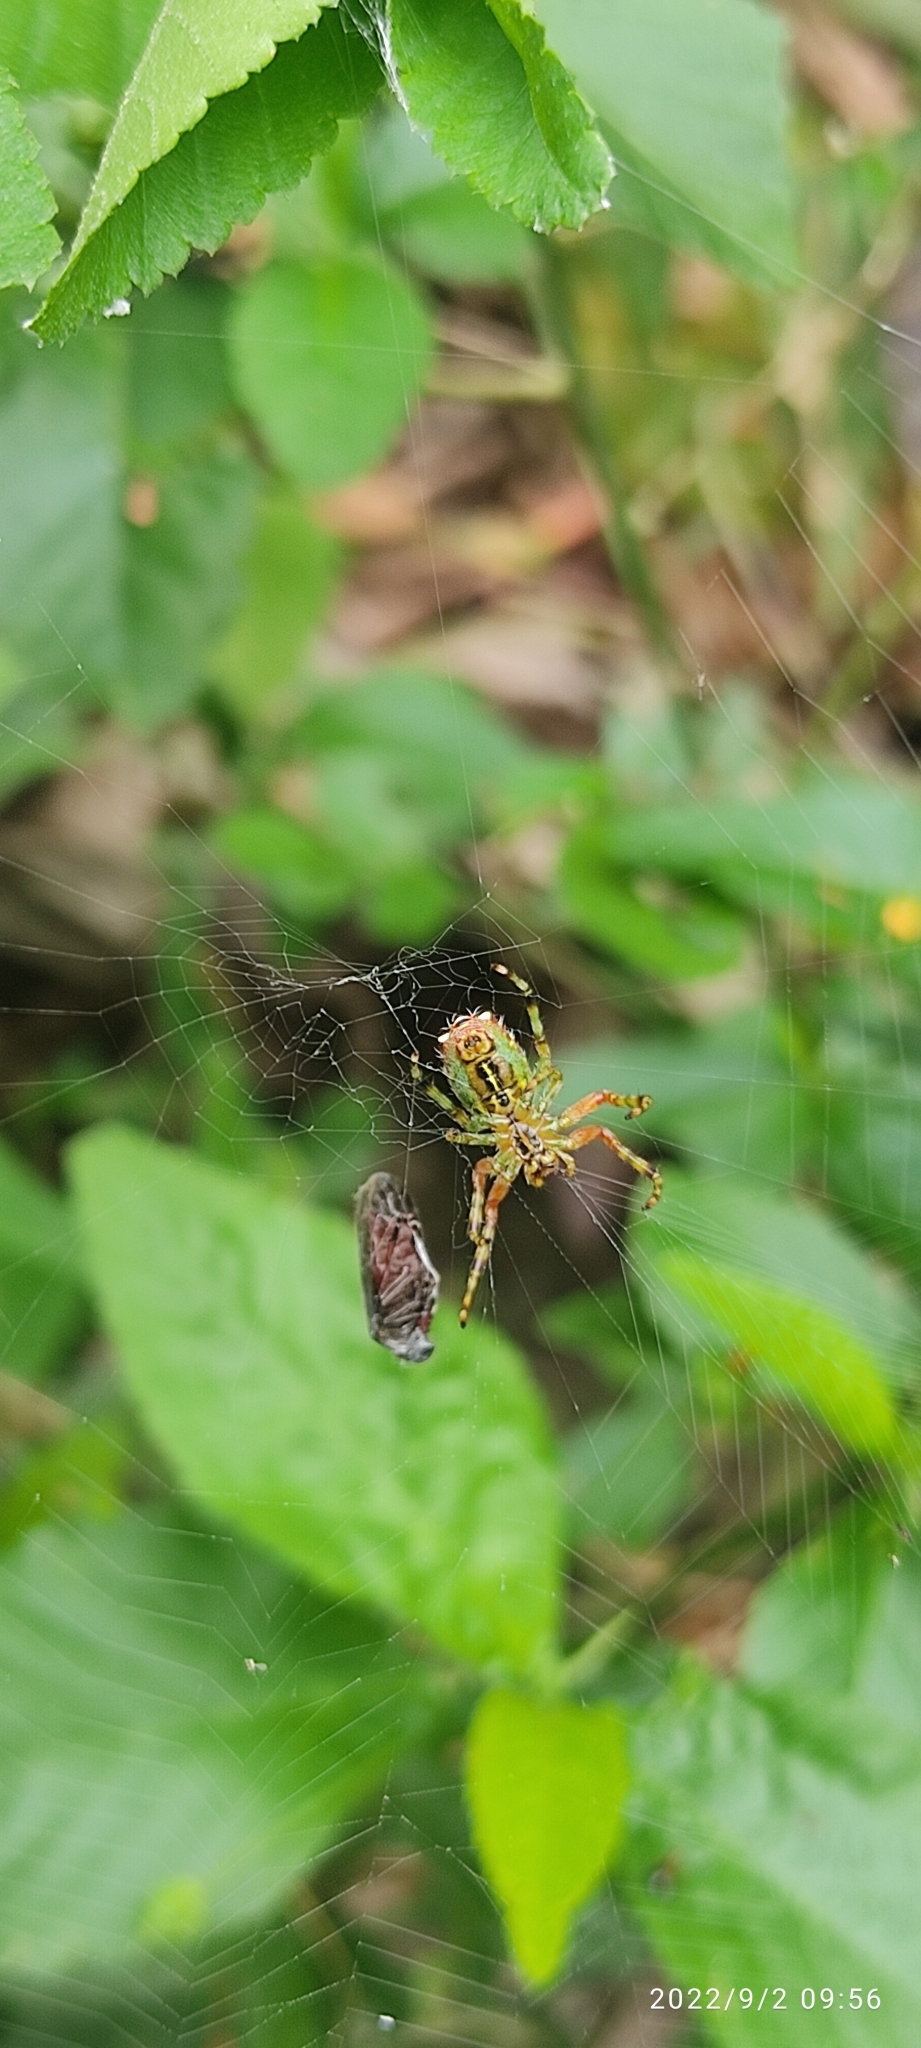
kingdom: Animalia
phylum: Arthropoda
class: Arachnida
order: Araneae
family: Araneidae
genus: Alpaida
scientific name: Alpaida truncata
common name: Orb weavers
